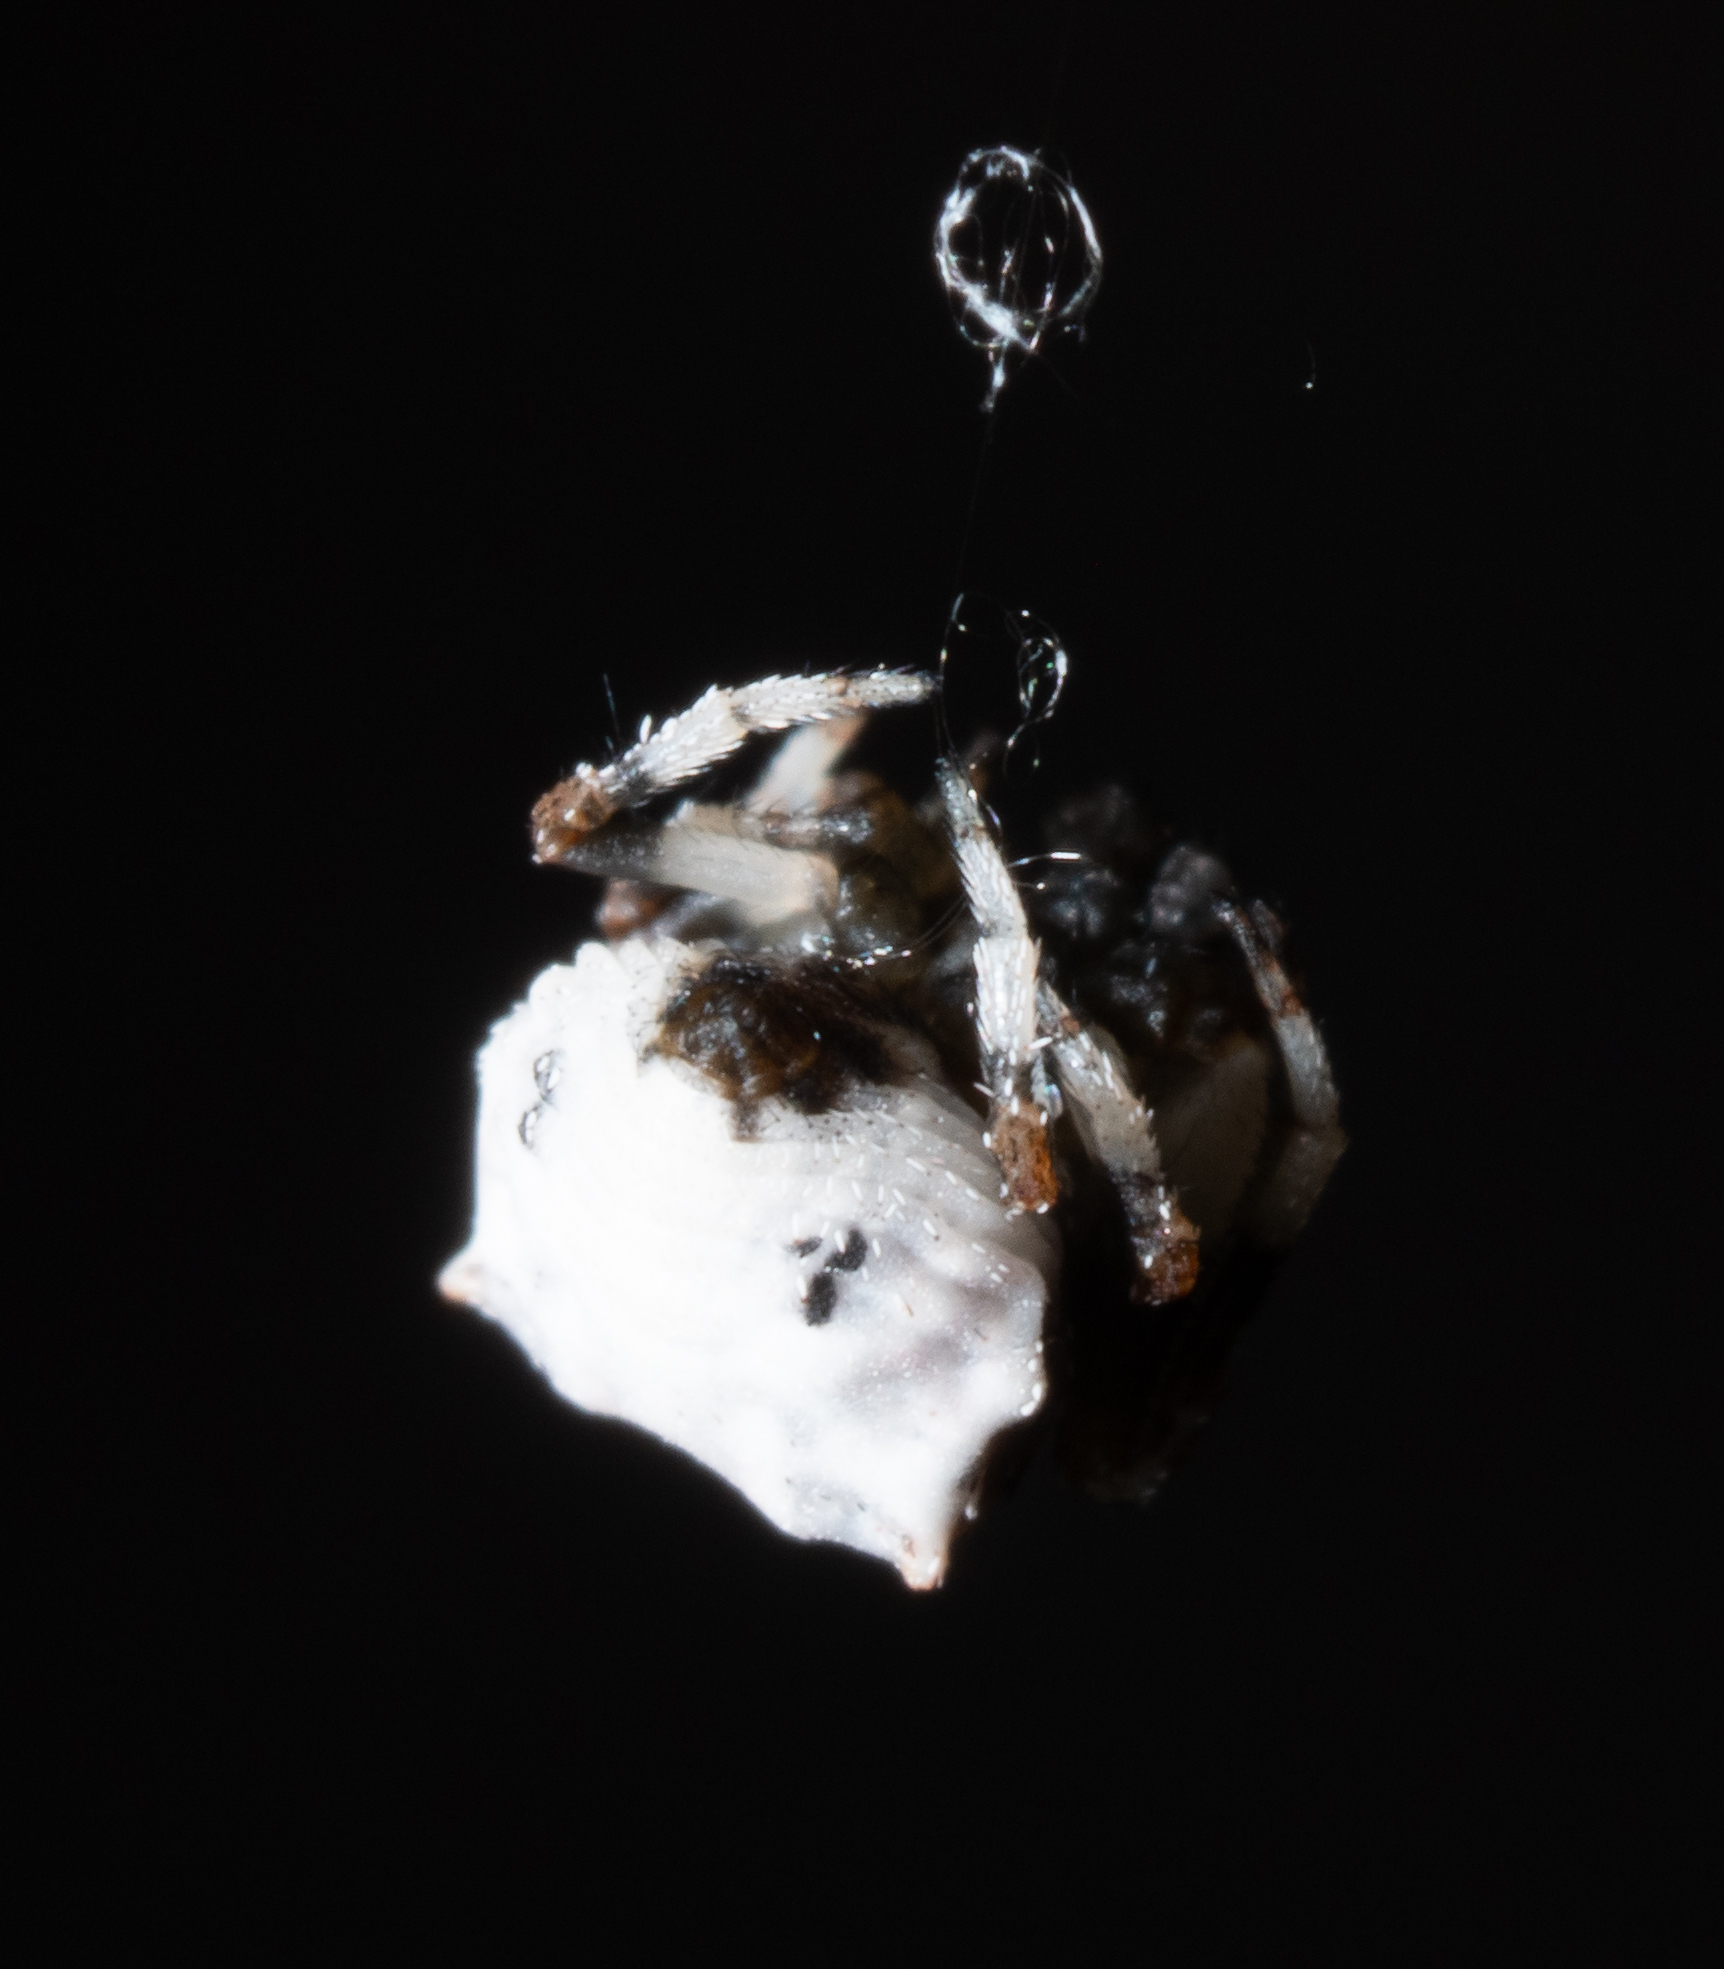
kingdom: Animalia
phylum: Arthropoda
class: Arachnida
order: Araneae
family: Araneidae
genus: Celaenia
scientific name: Celaenia excavata
